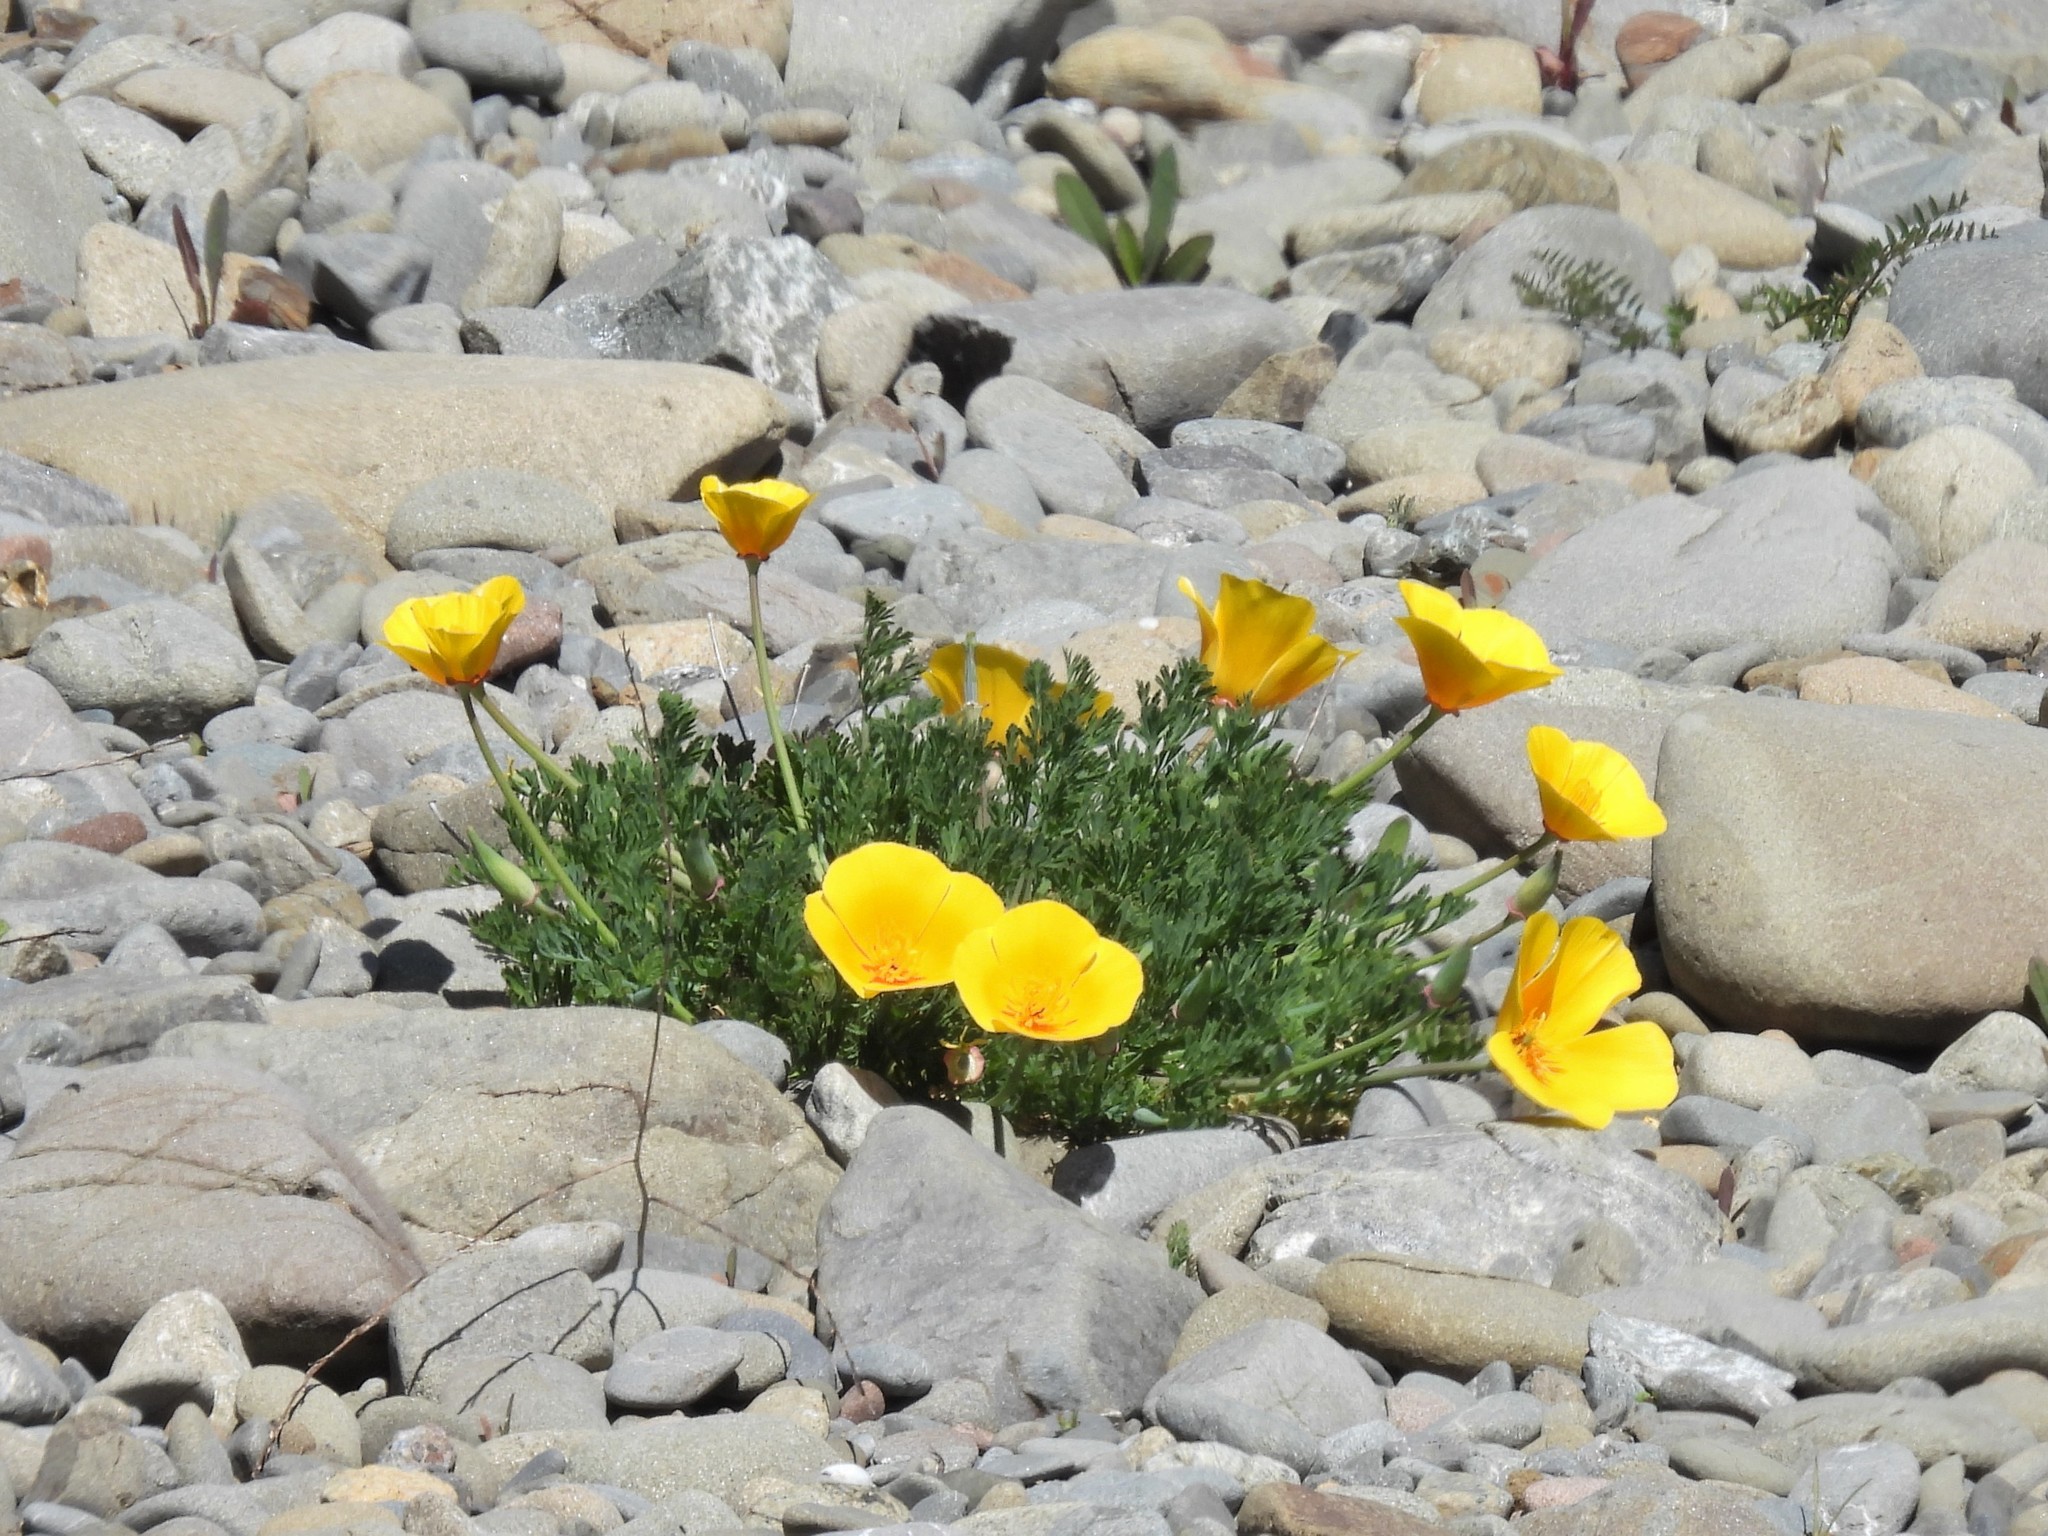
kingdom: Plantae
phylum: Tracheophyta
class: Magnoliopsida
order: Ranunculales
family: Papaveraceae
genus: Eschscholzia
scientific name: Eschscholzia californica
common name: California poppy
